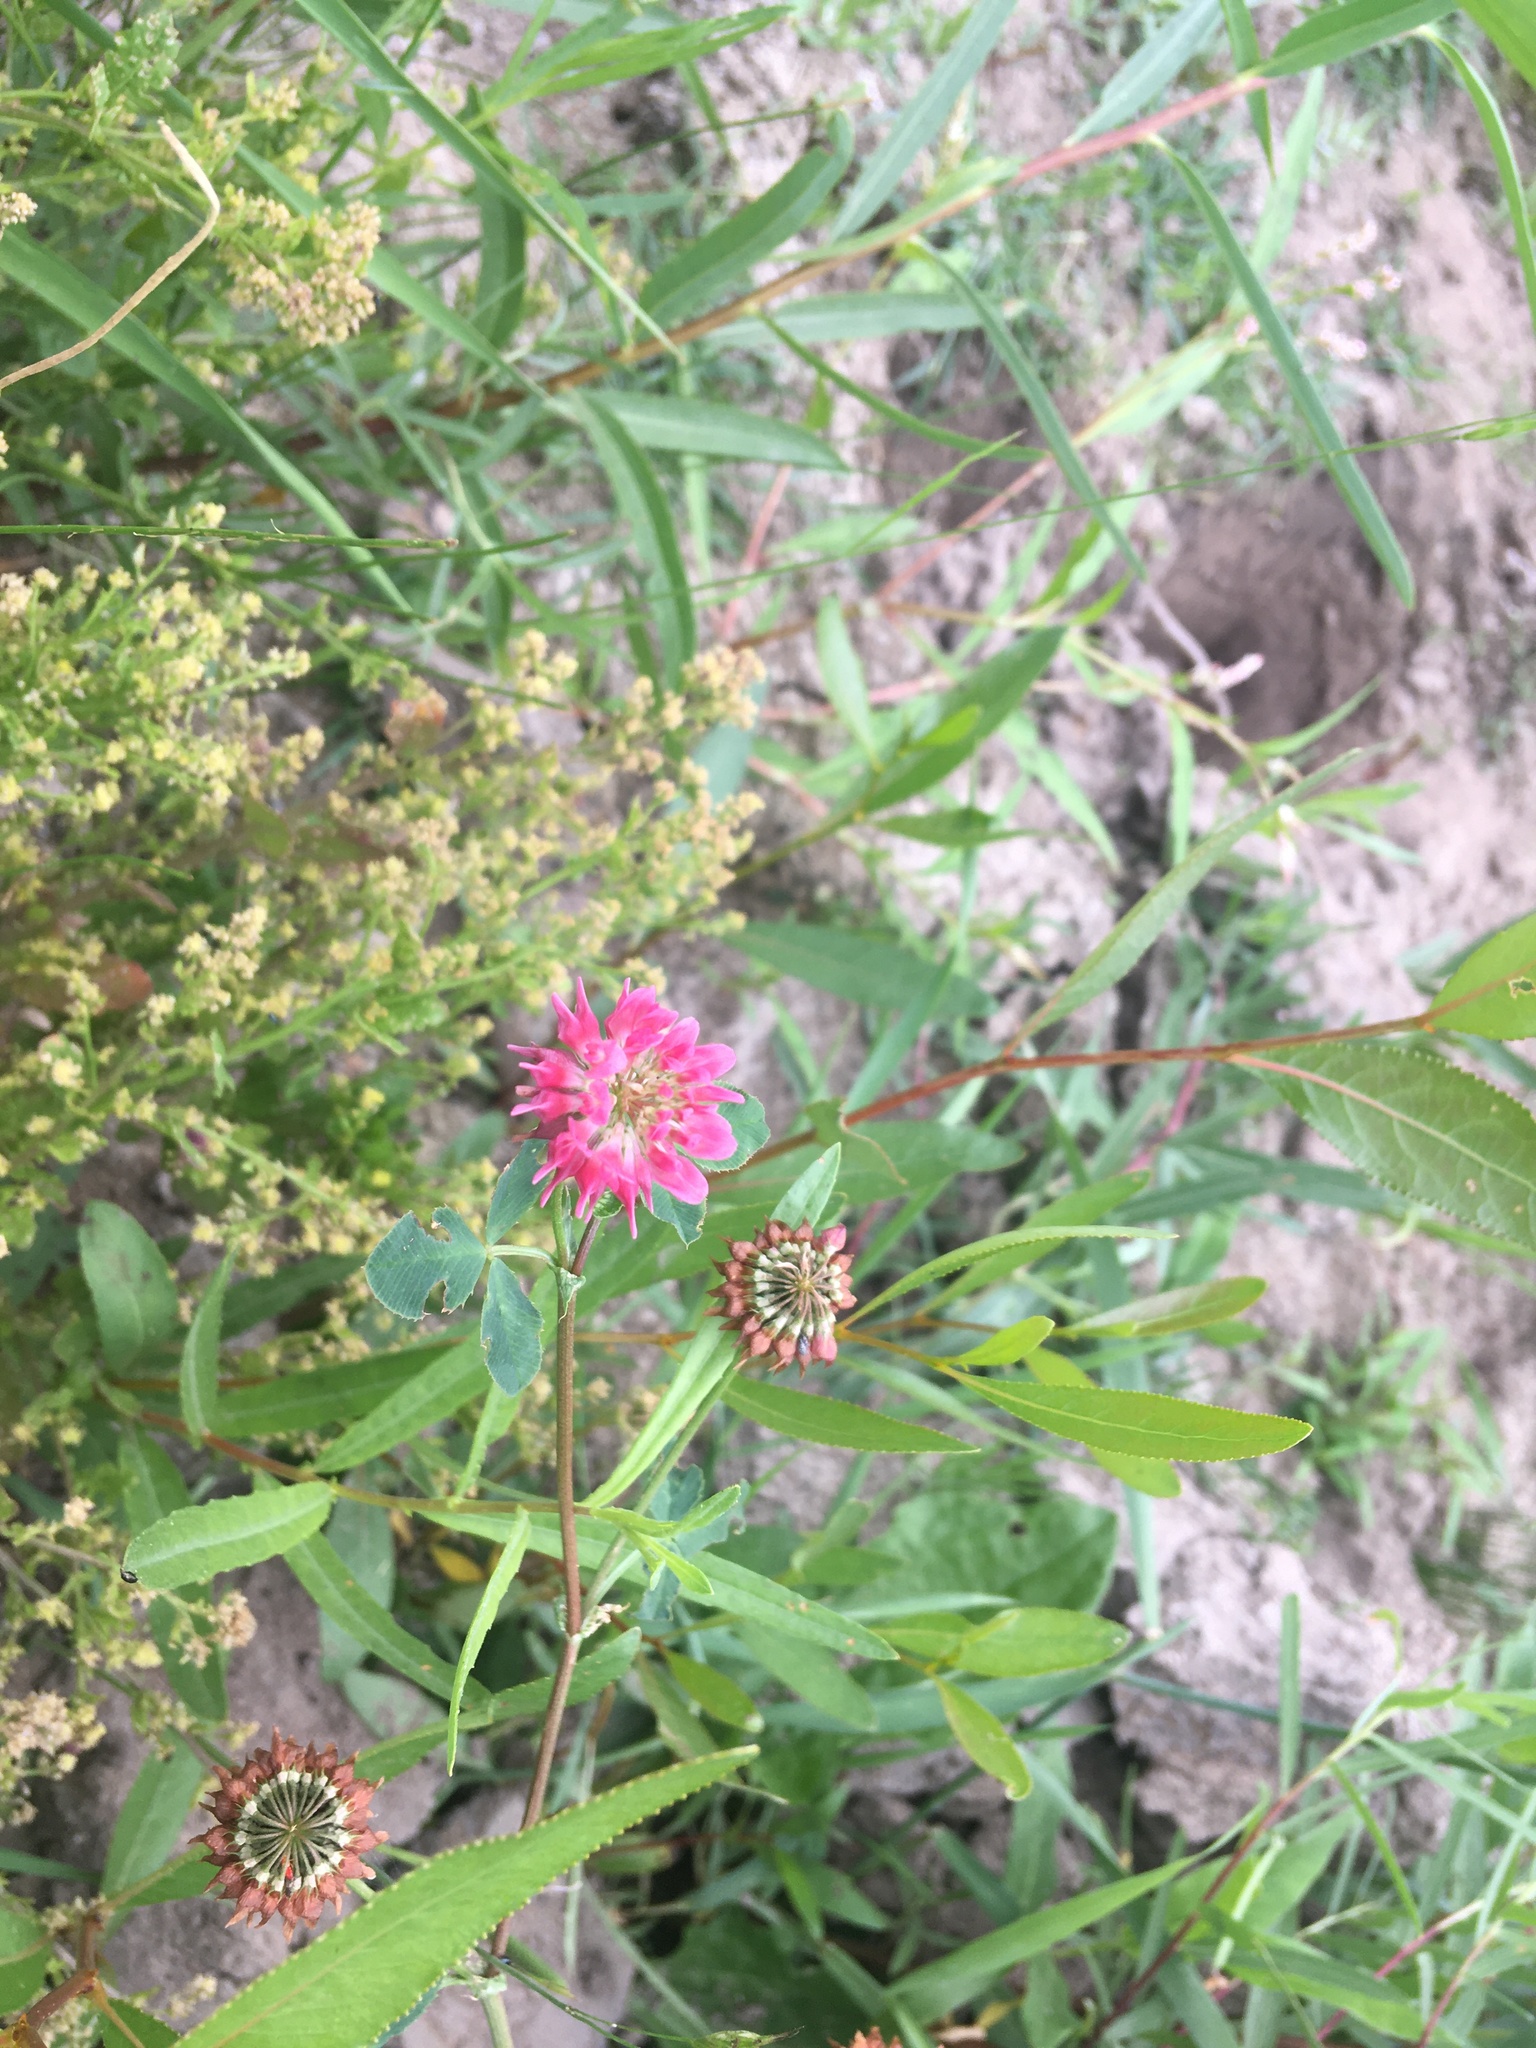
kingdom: Plantae
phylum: Tracheophyta
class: Magnoliopsida
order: Fabales
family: Fabaceae
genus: Trifolium
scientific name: Trifolium hybridum
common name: Alsike clover
